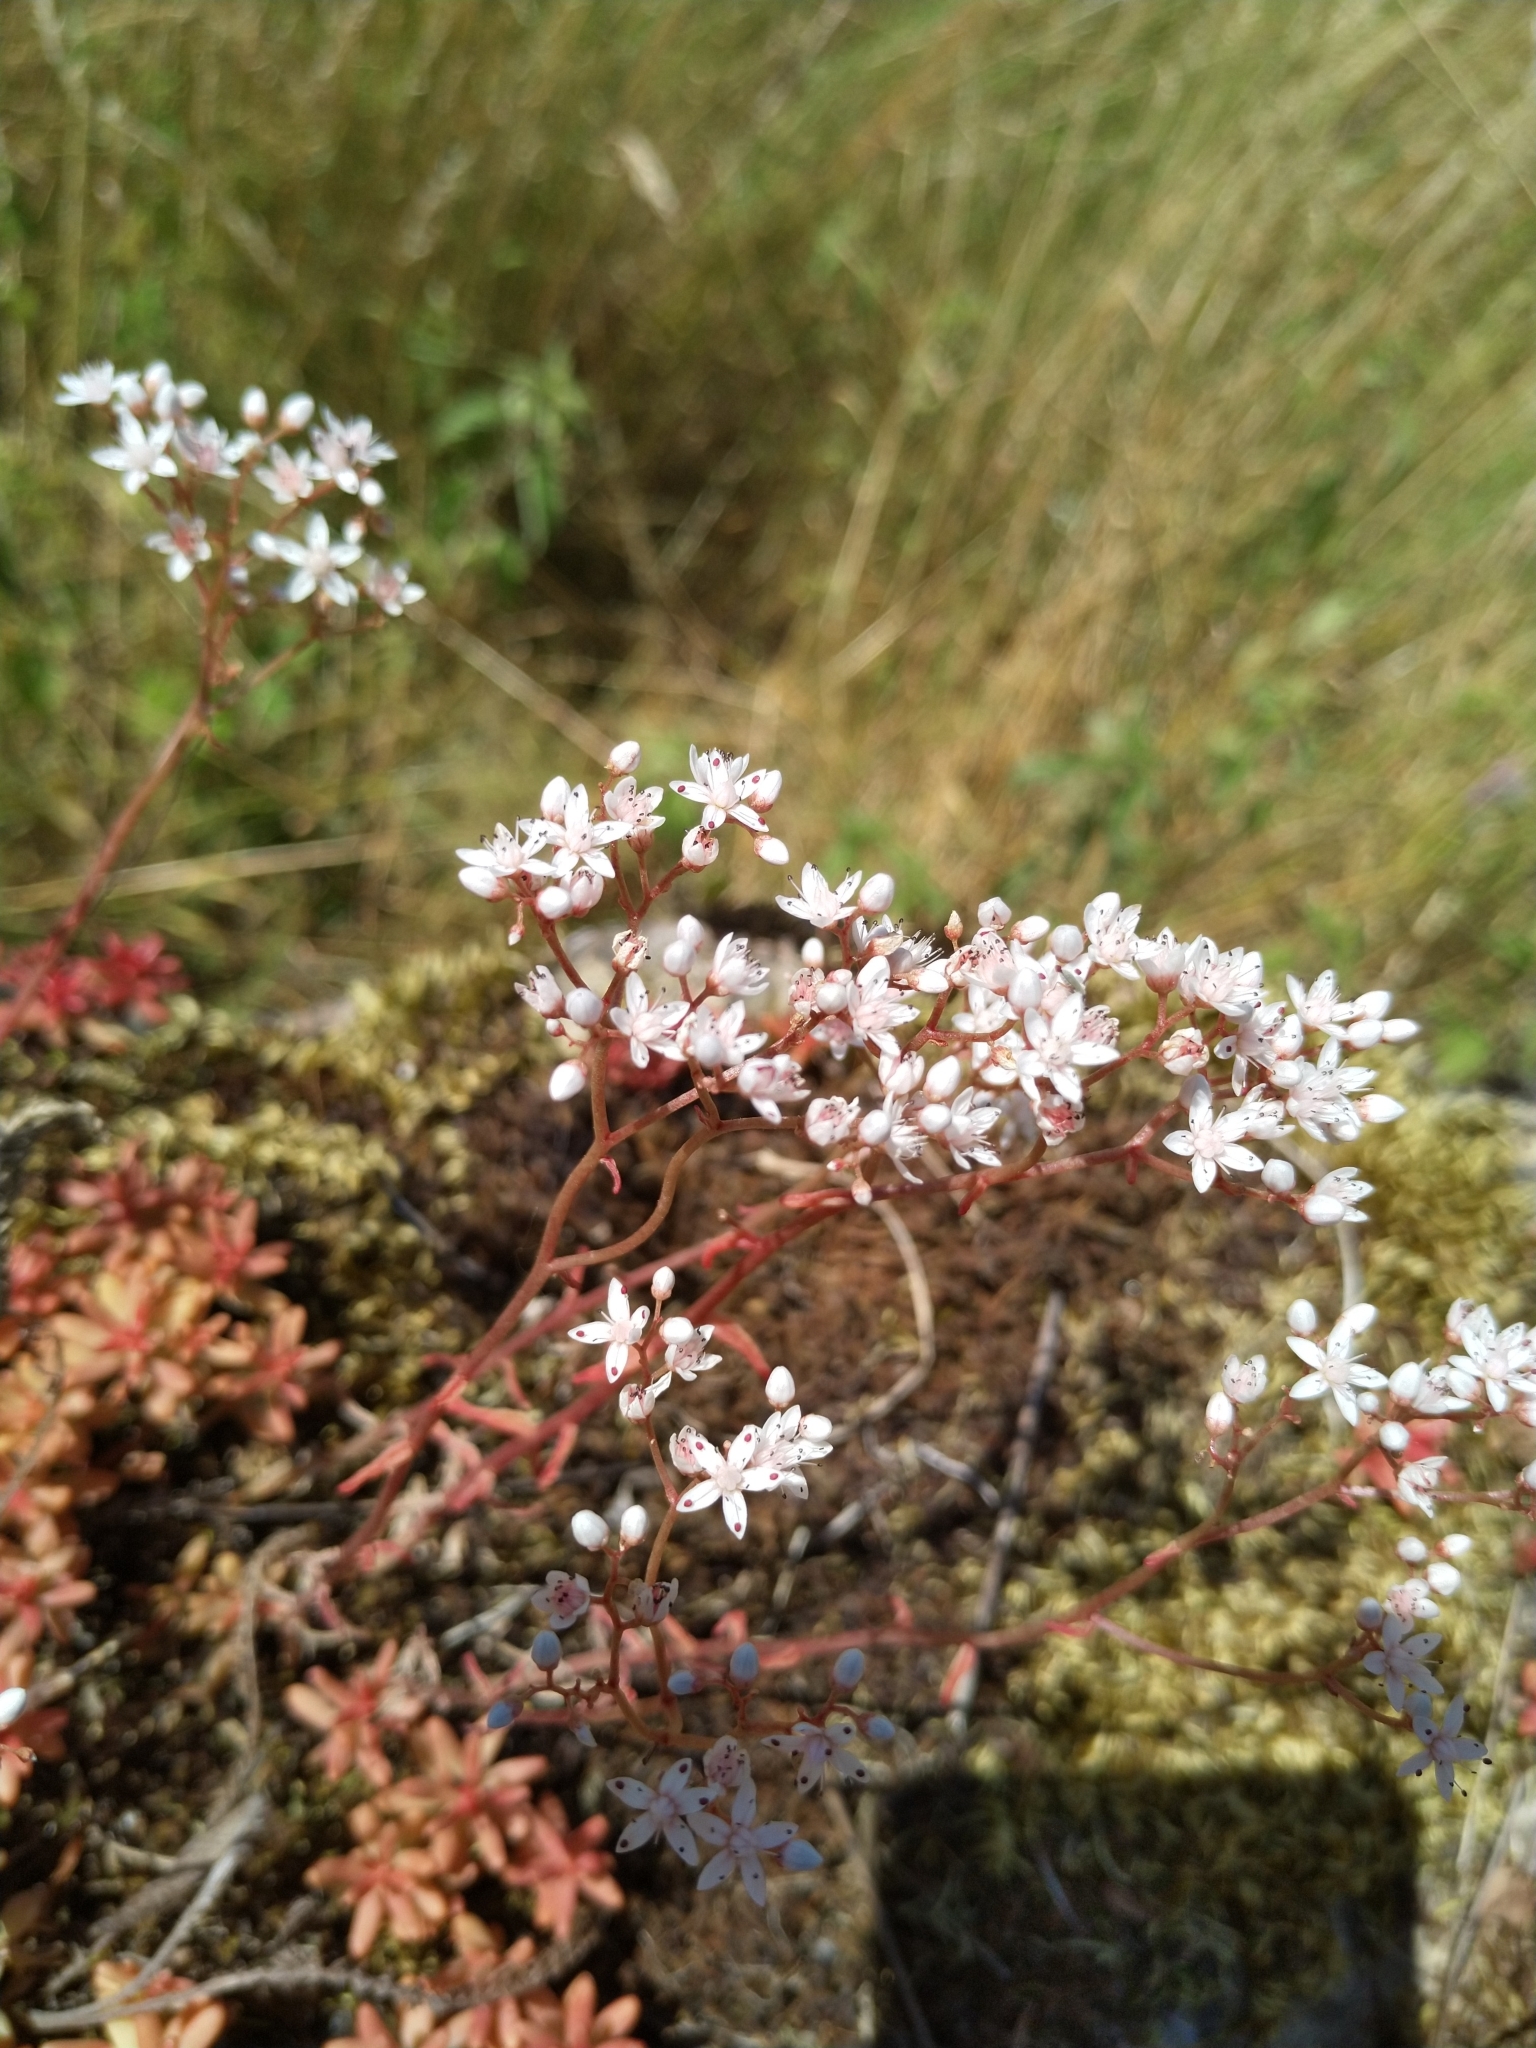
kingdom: Plantae
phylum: Tracheophyta
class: Magnoliopsida
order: Saxifragales
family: Crassulaceae
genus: Sedum
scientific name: Sedum album
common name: White stonecrop
